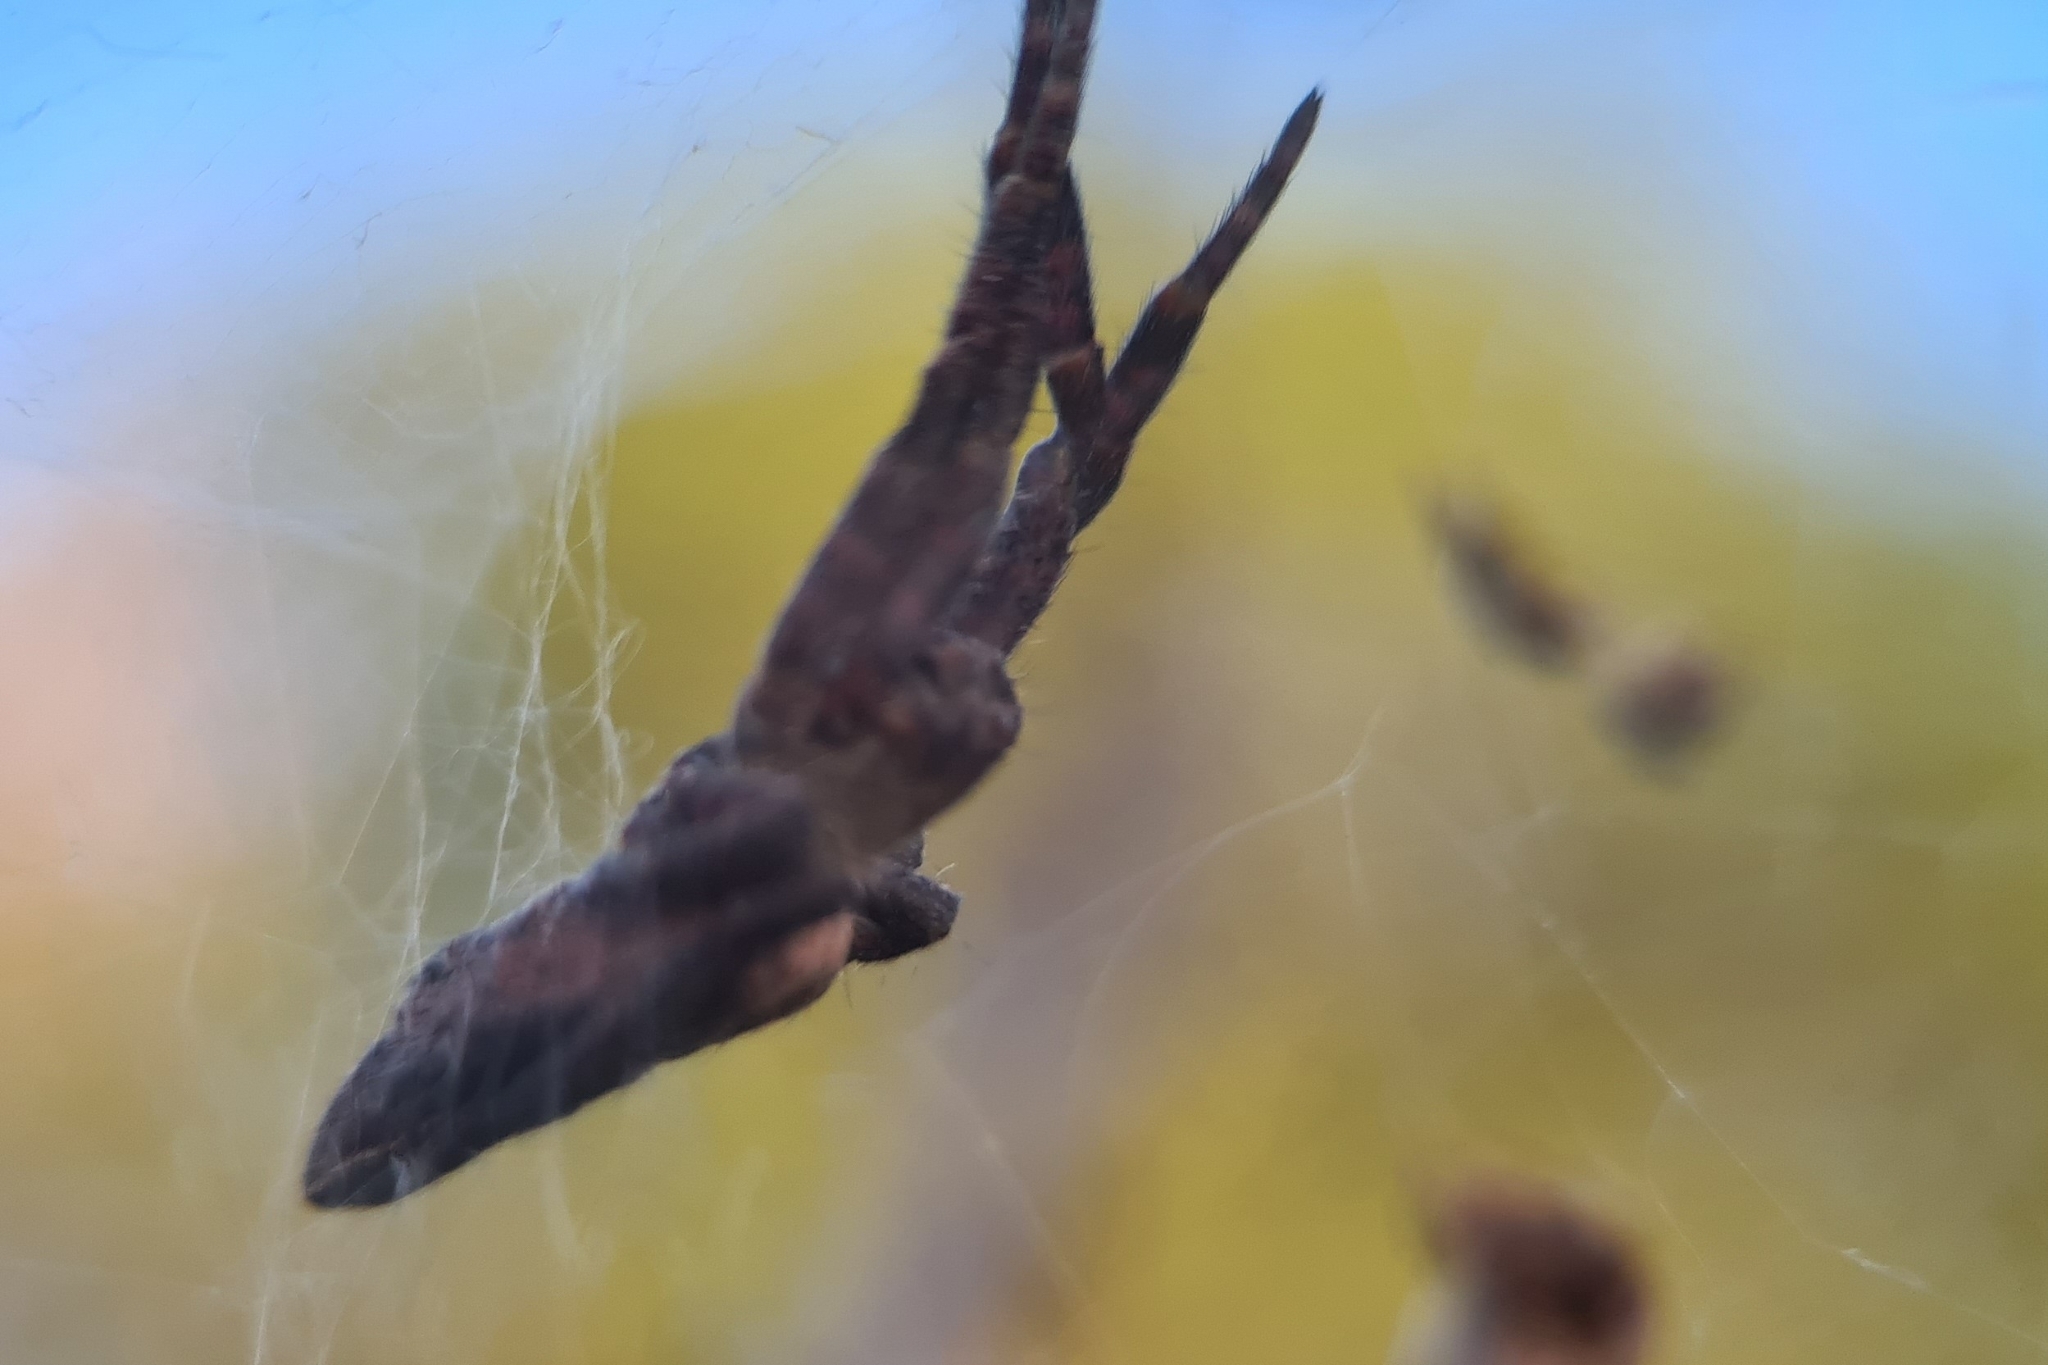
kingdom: Animalia
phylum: Arthropoda
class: Arachnida
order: Araneae
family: Araneidae
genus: Cyrtophora
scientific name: Cyrtophora exanthematica
